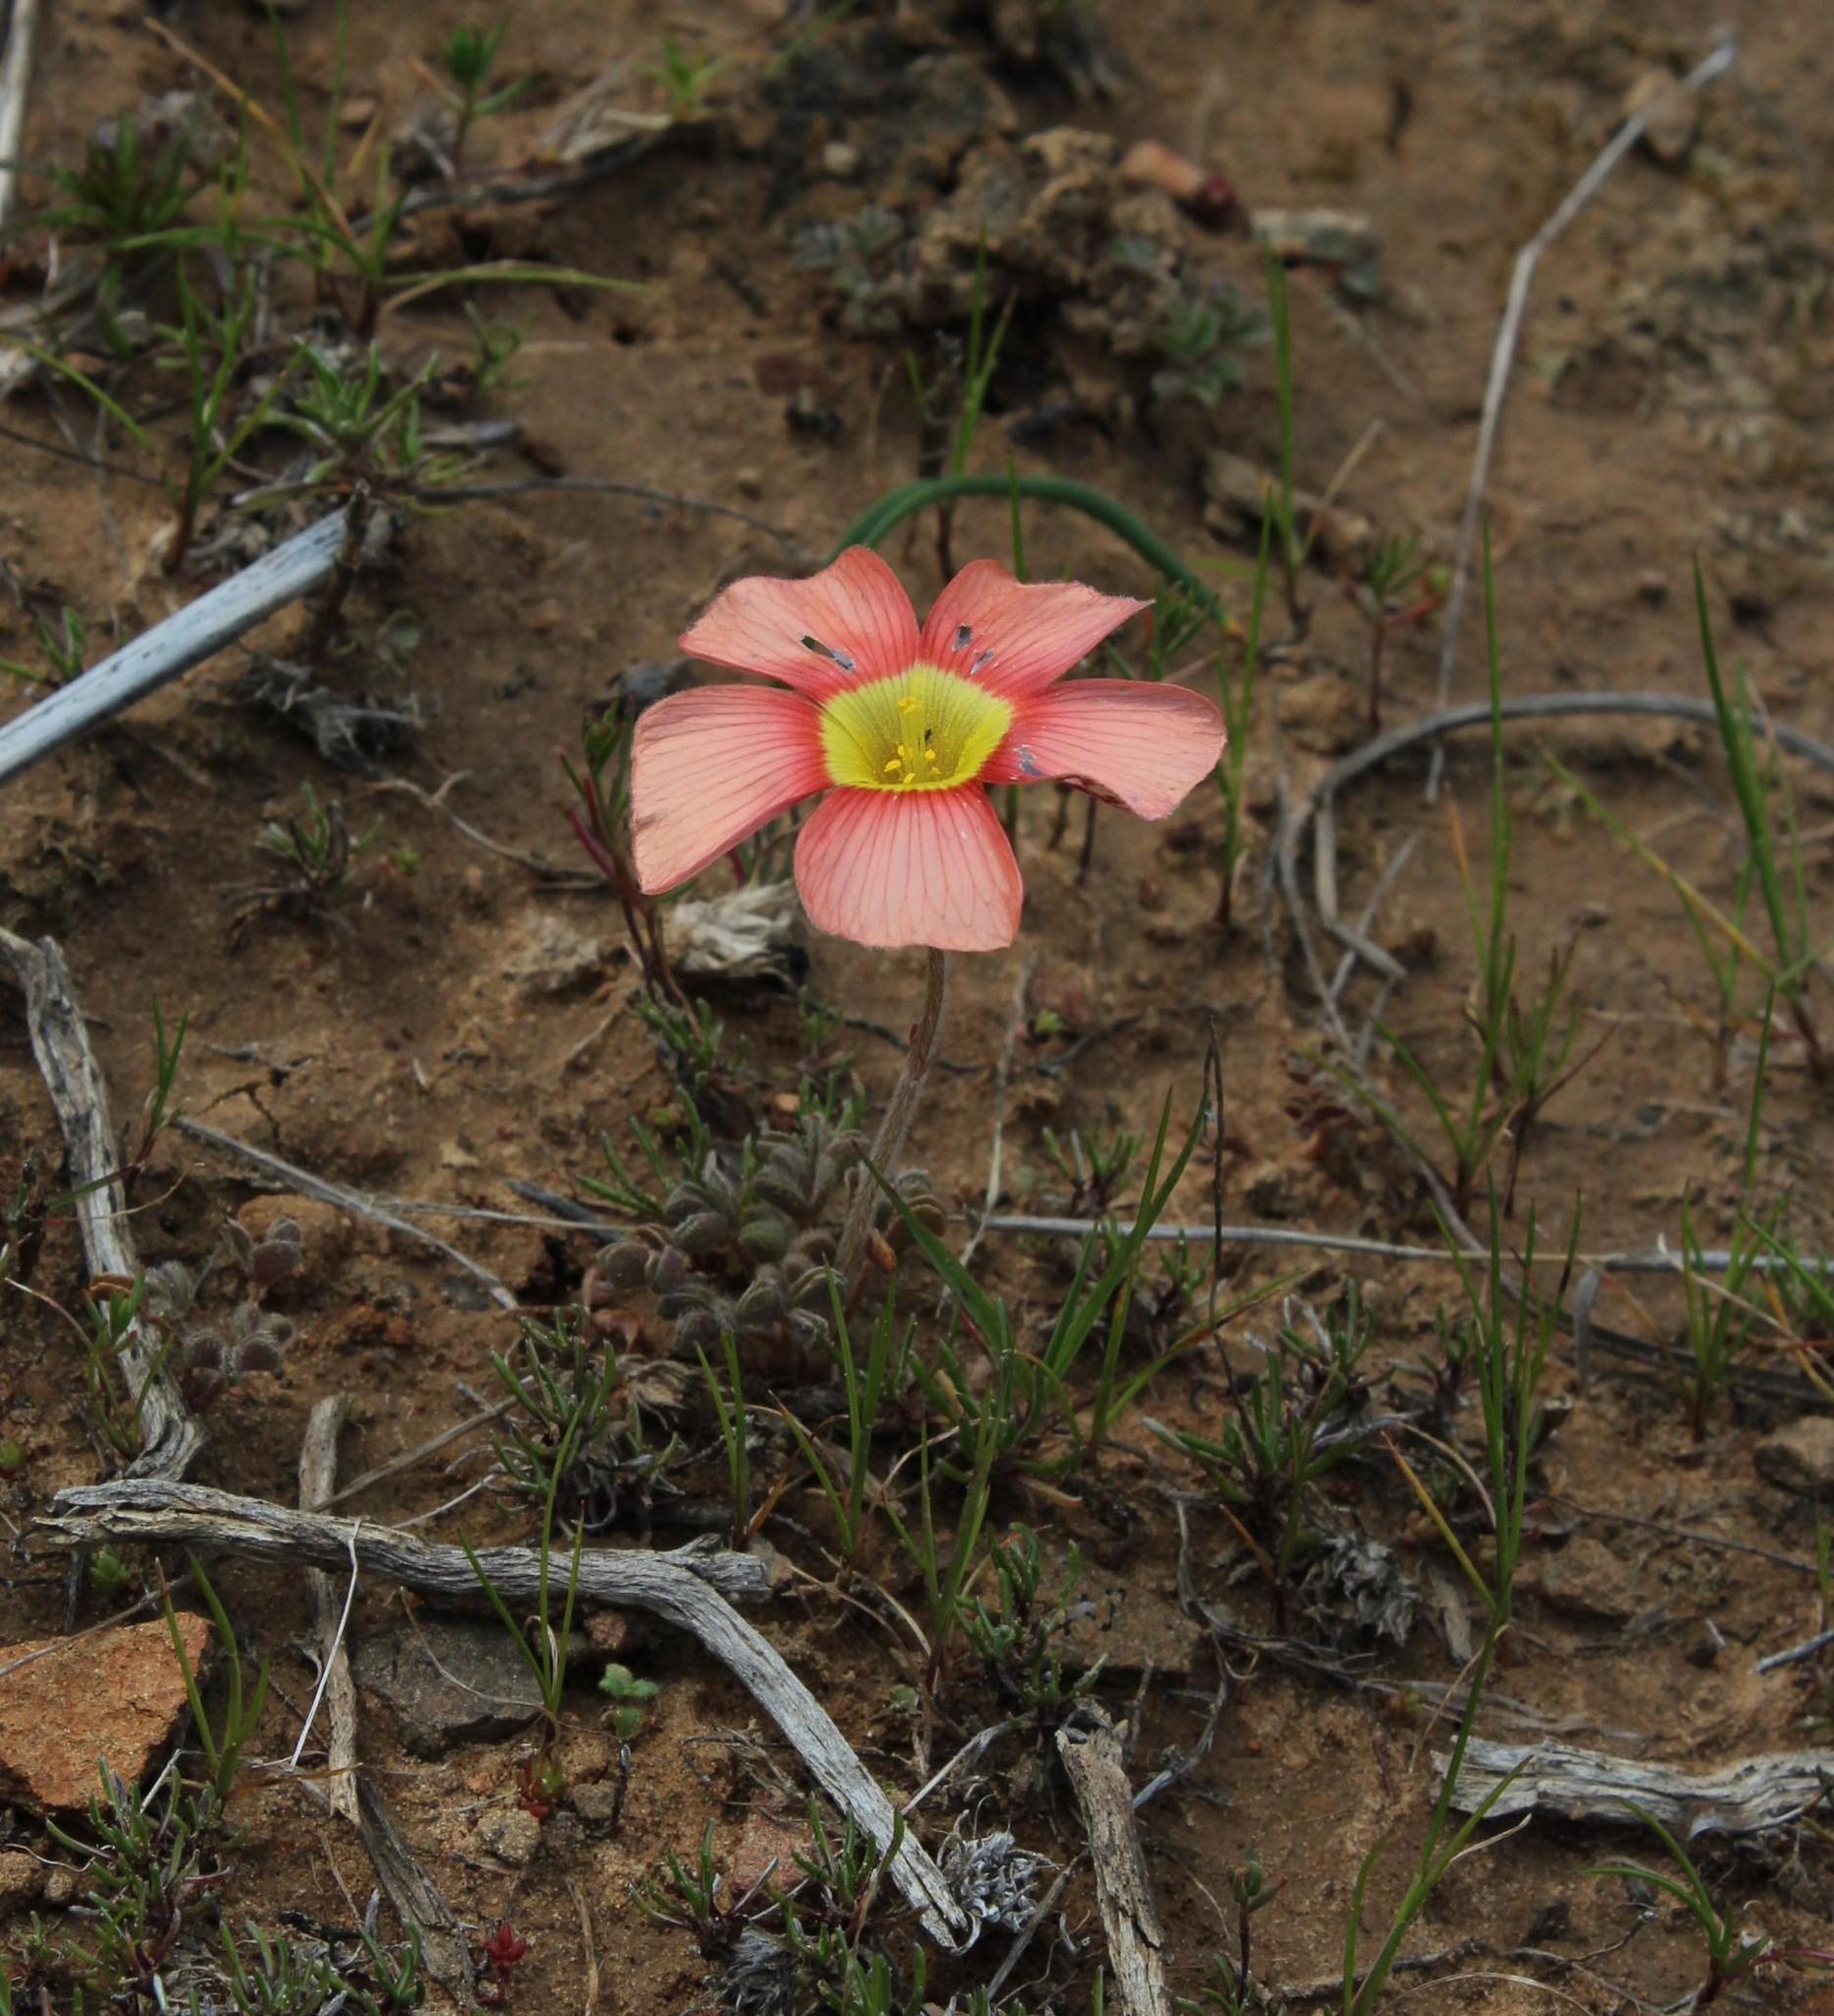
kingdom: Plantae
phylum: Tracheophyta
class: Magnoliopsida
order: Oxalidales
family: Oxalidaceae
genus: Oxalis
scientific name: Oxalis obtusa
